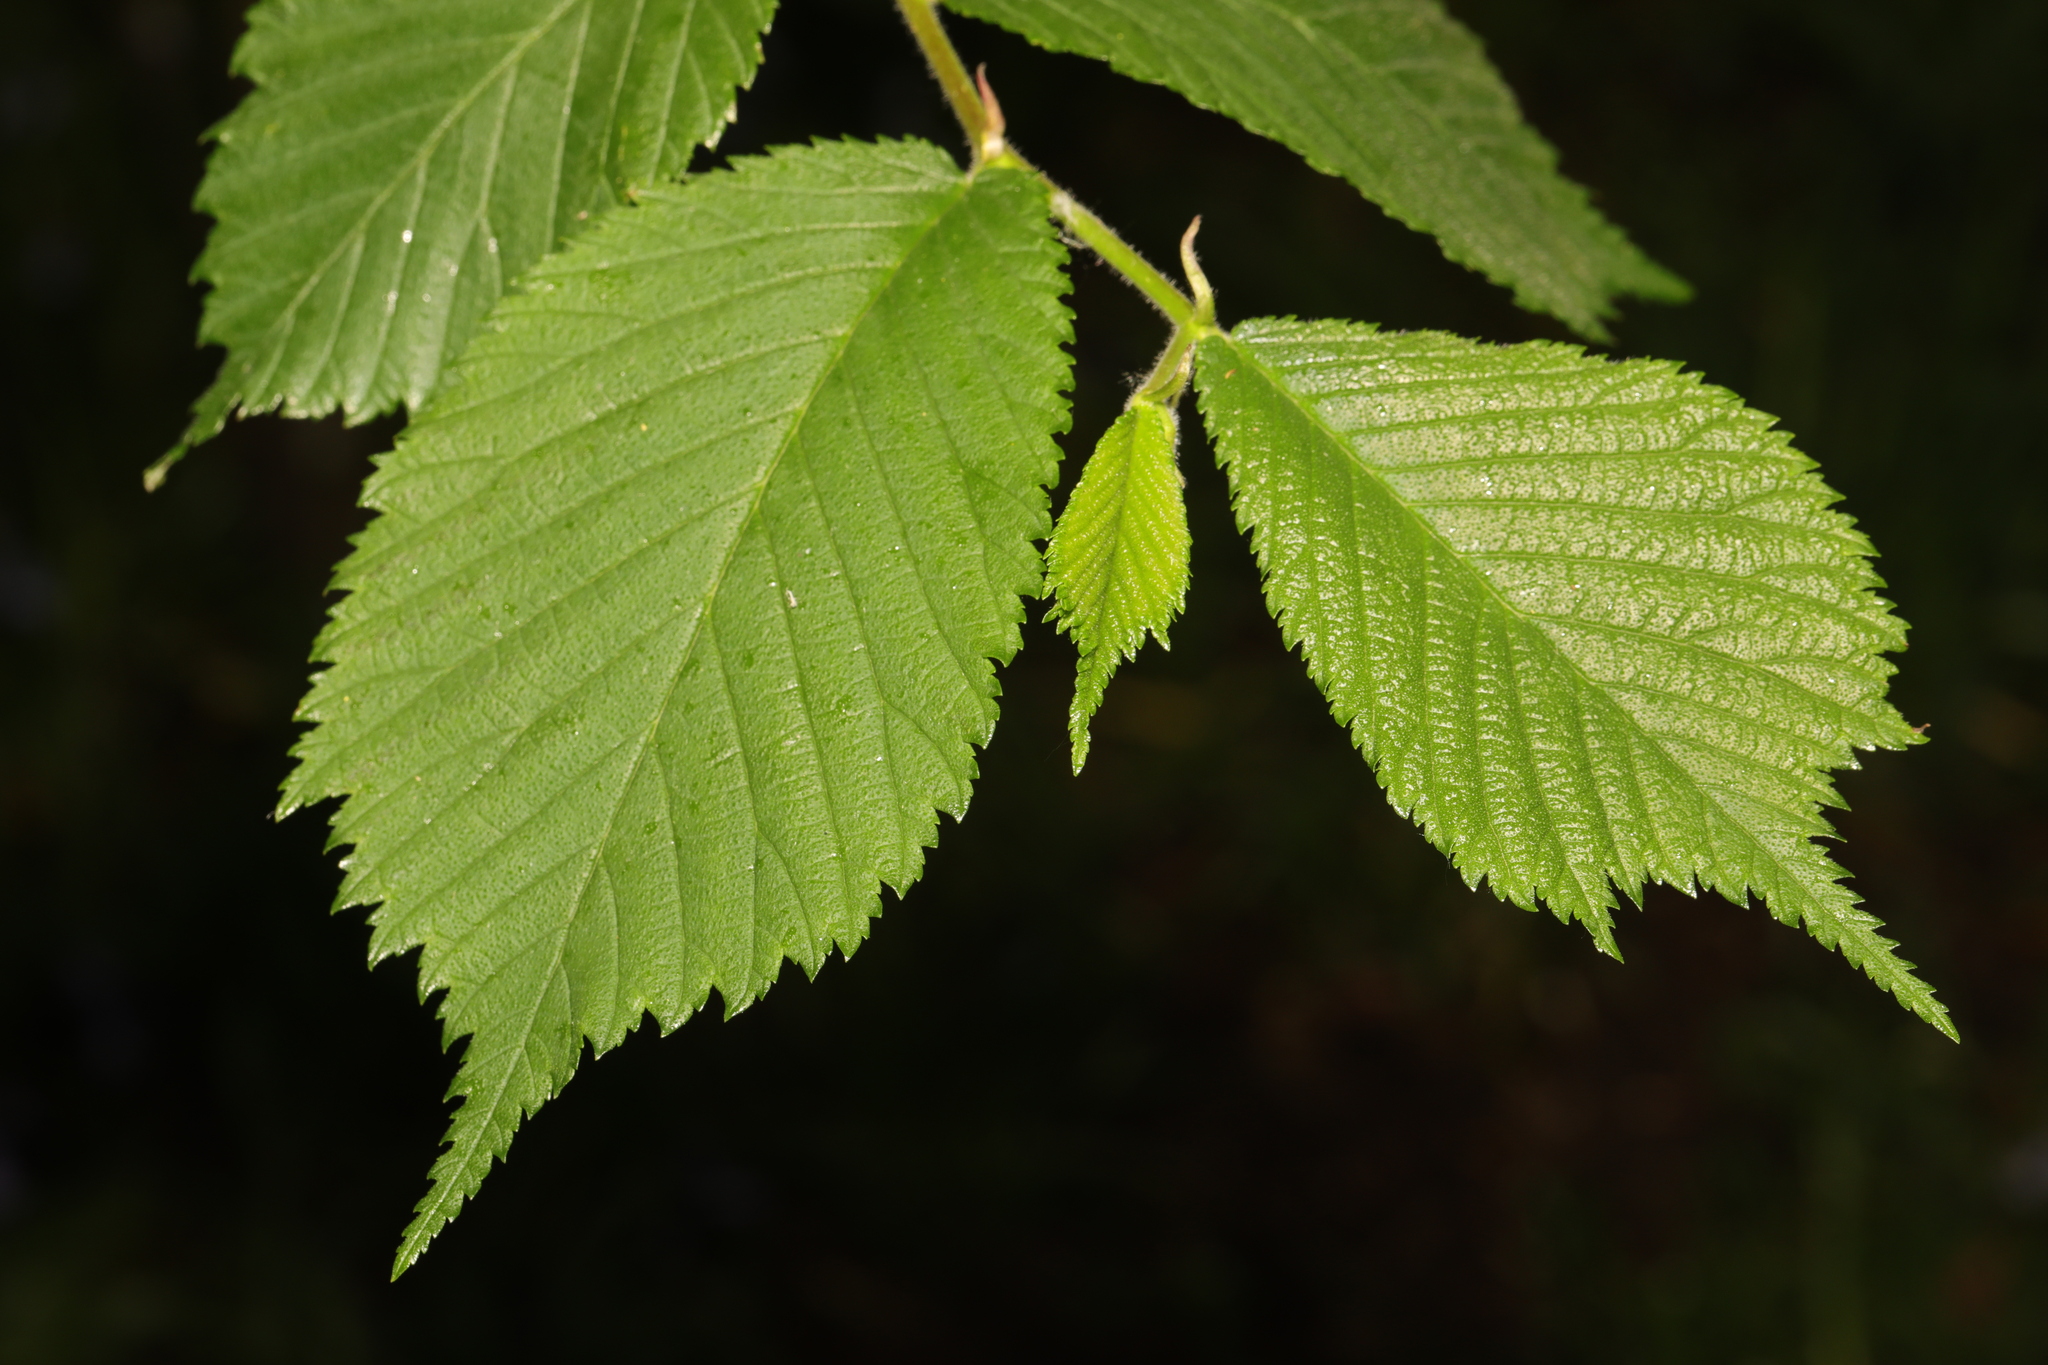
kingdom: Plantae
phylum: Tracheophyta
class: Magnoliopsida
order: Rosales
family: Ulmaceae
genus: Ulmus
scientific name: Ulmus glabra
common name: Wych elm
